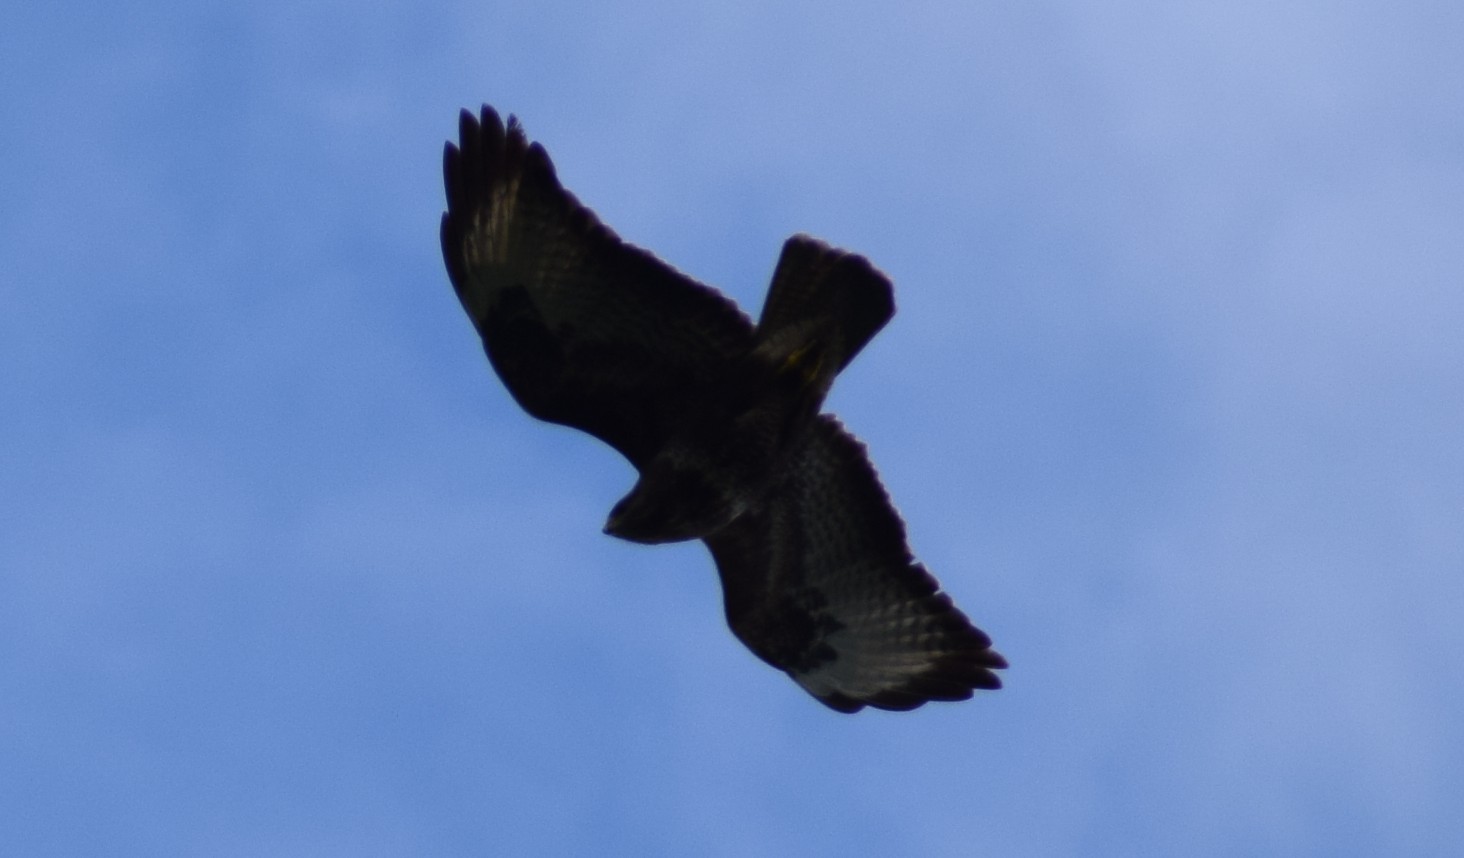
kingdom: Animalia
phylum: Chordata
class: Aves
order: Accipitriformes
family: Accipitridae
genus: Buteo
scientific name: Buteo buteo
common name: Common buzzard
